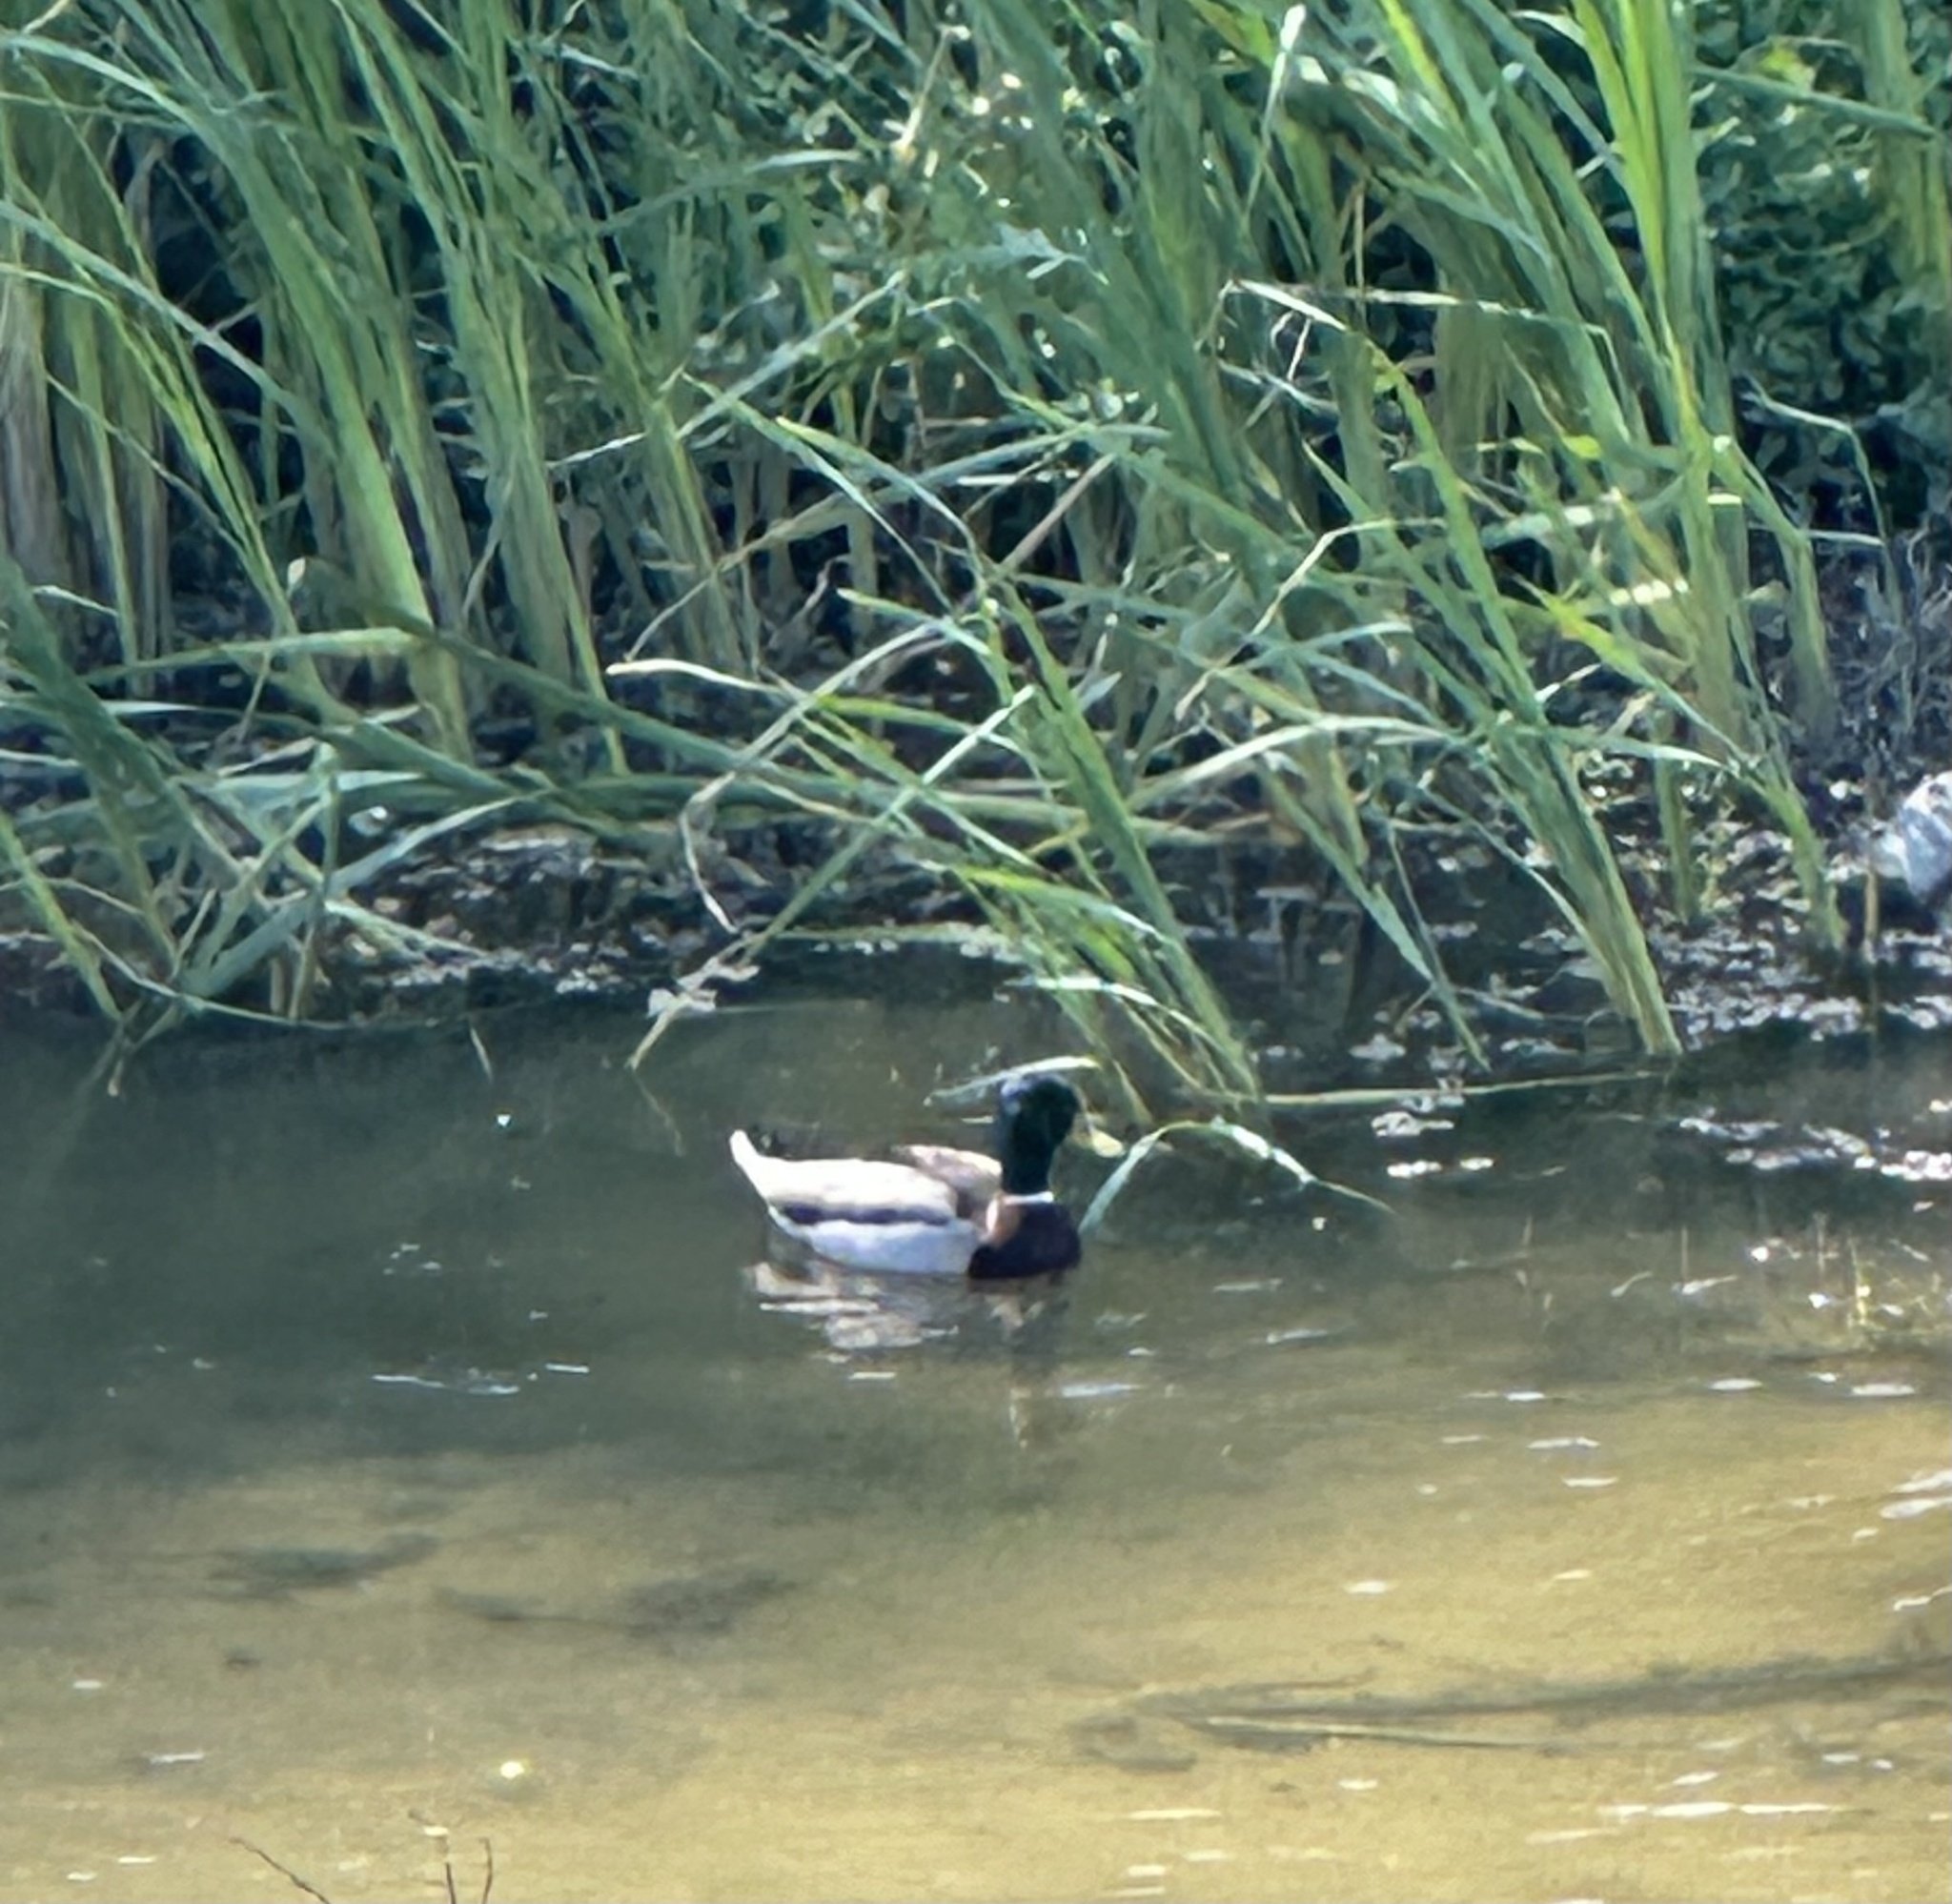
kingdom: Animalia
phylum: Chordata
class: Aves
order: Anseriformes
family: Anatidae
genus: Anas
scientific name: Anas platyrhynchos
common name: Mallard
